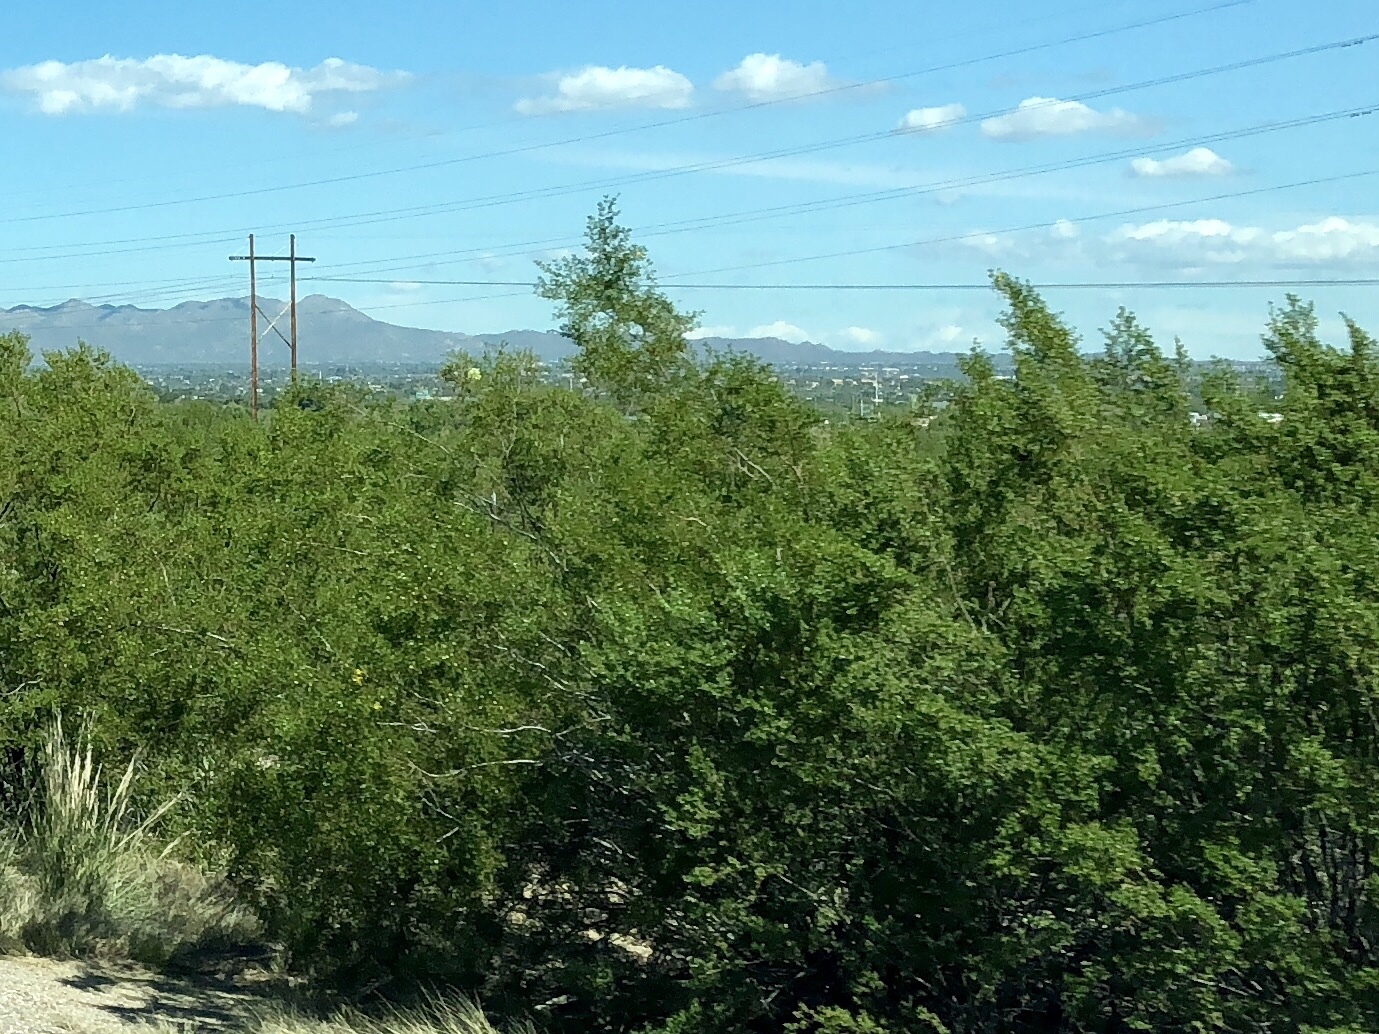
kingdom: Plantae
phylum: Tracheophyta
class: Magnoliopsida
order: Zygophyllales
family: Zygophyllaceae
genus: Larrea
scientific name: Larrea tridentata
